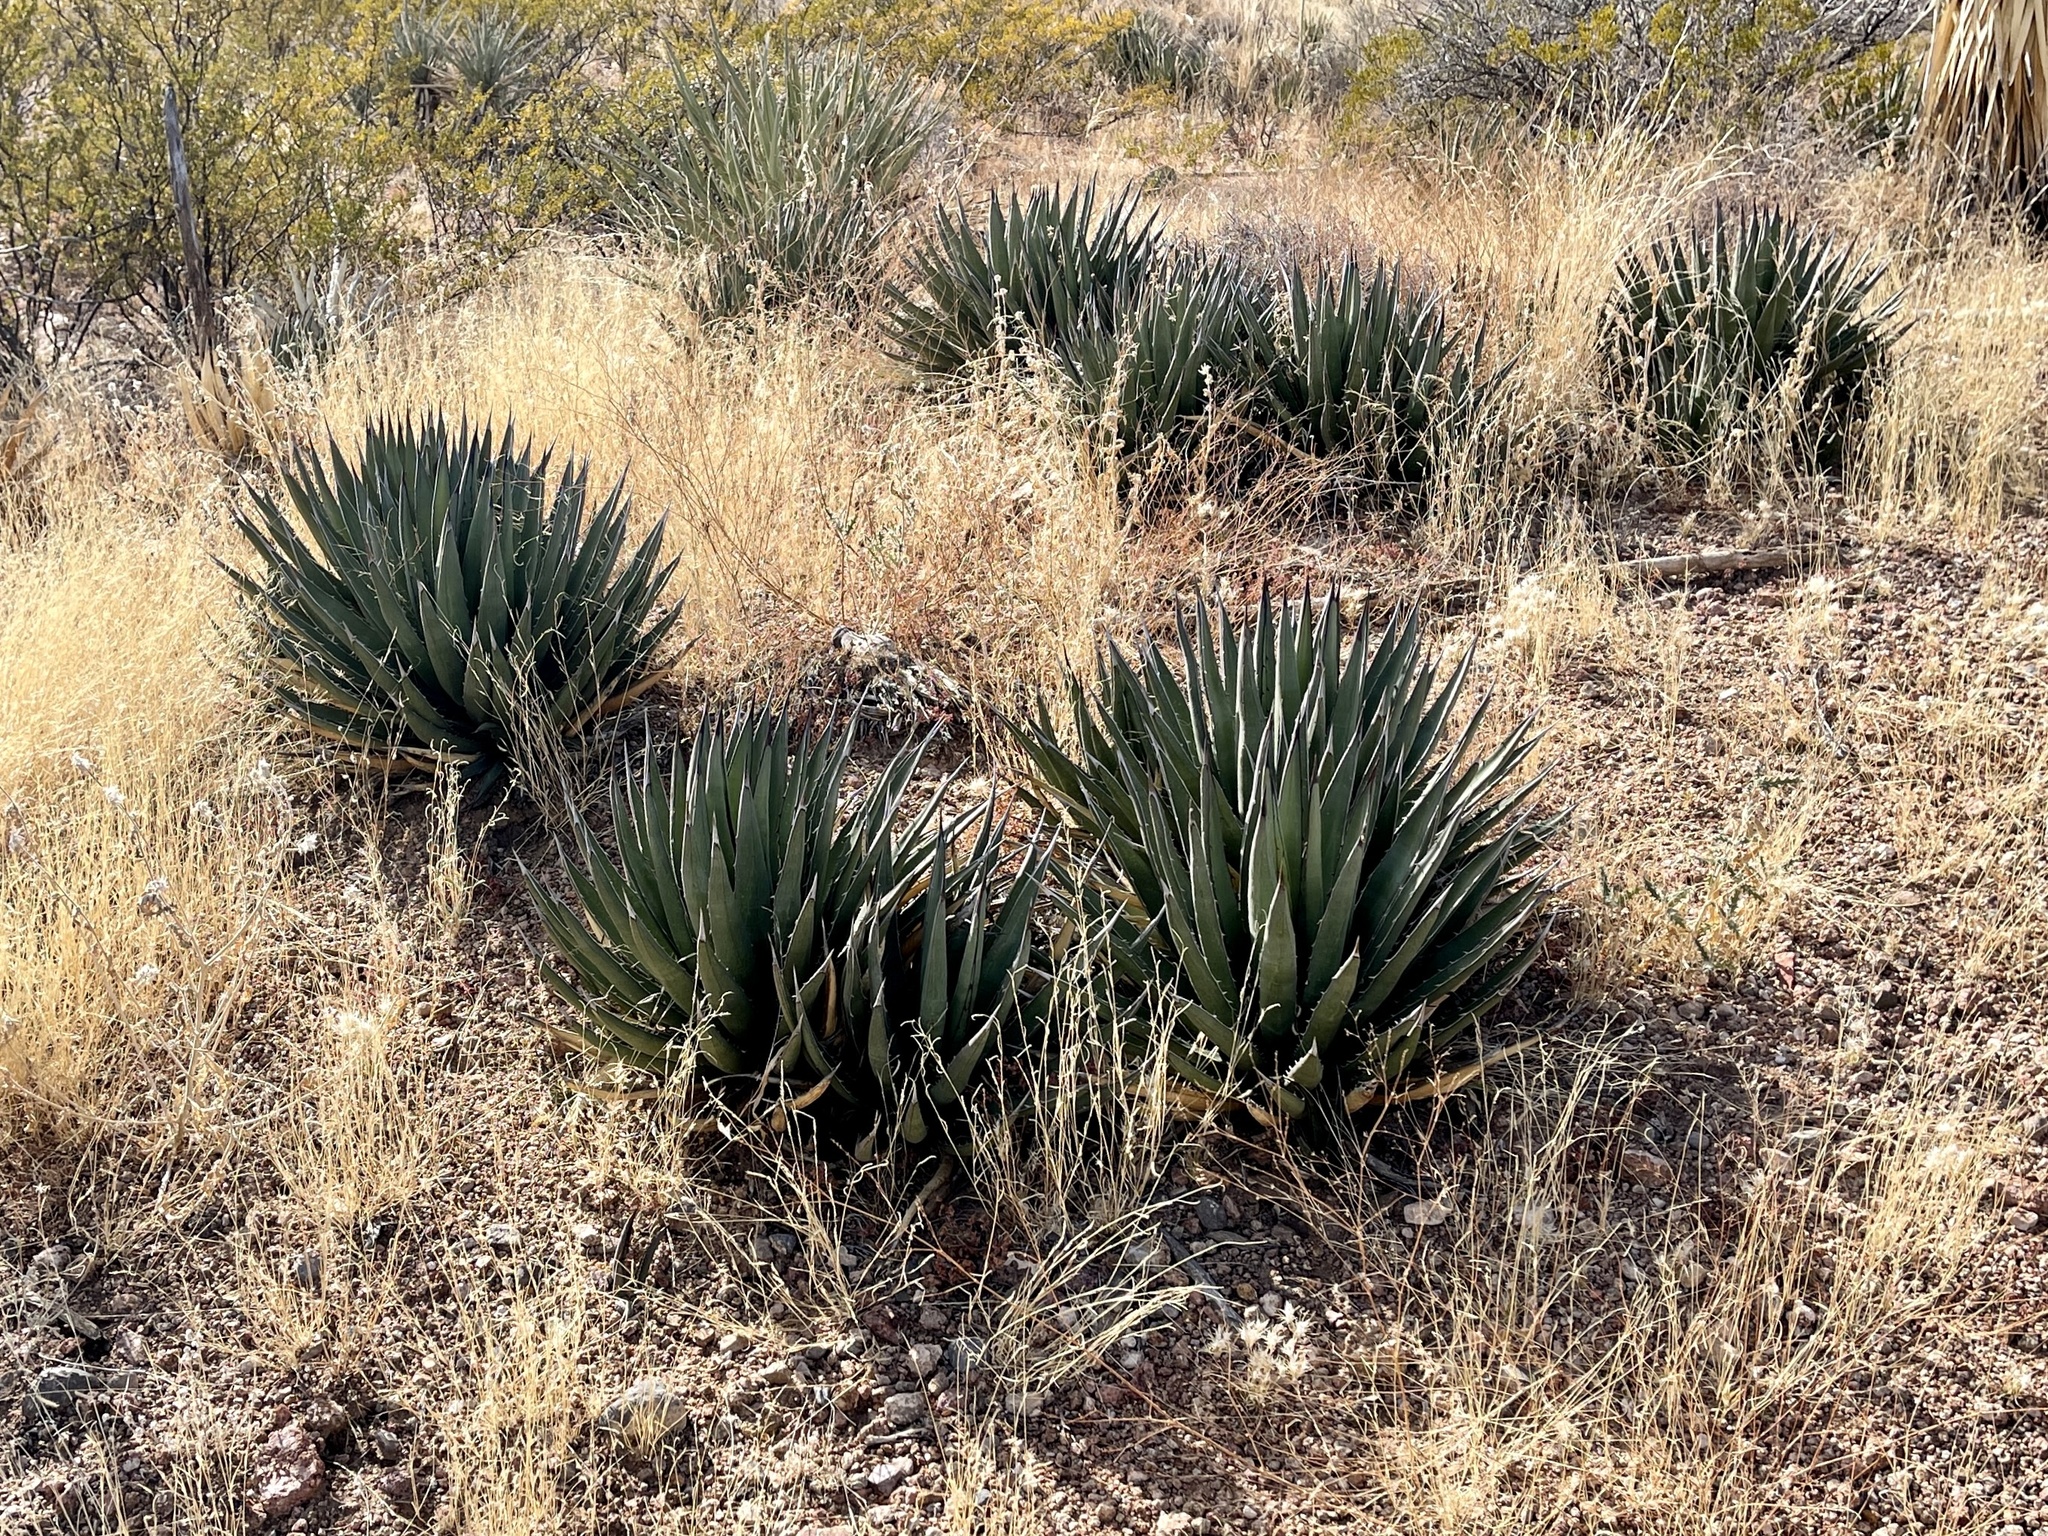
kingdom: Plantae
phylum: Tracheophyta
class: Liliopsida
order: Asparagales
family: Asparagaceae
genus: Agave
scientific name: Agave lechuguilla
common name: Lecheguilla agave
